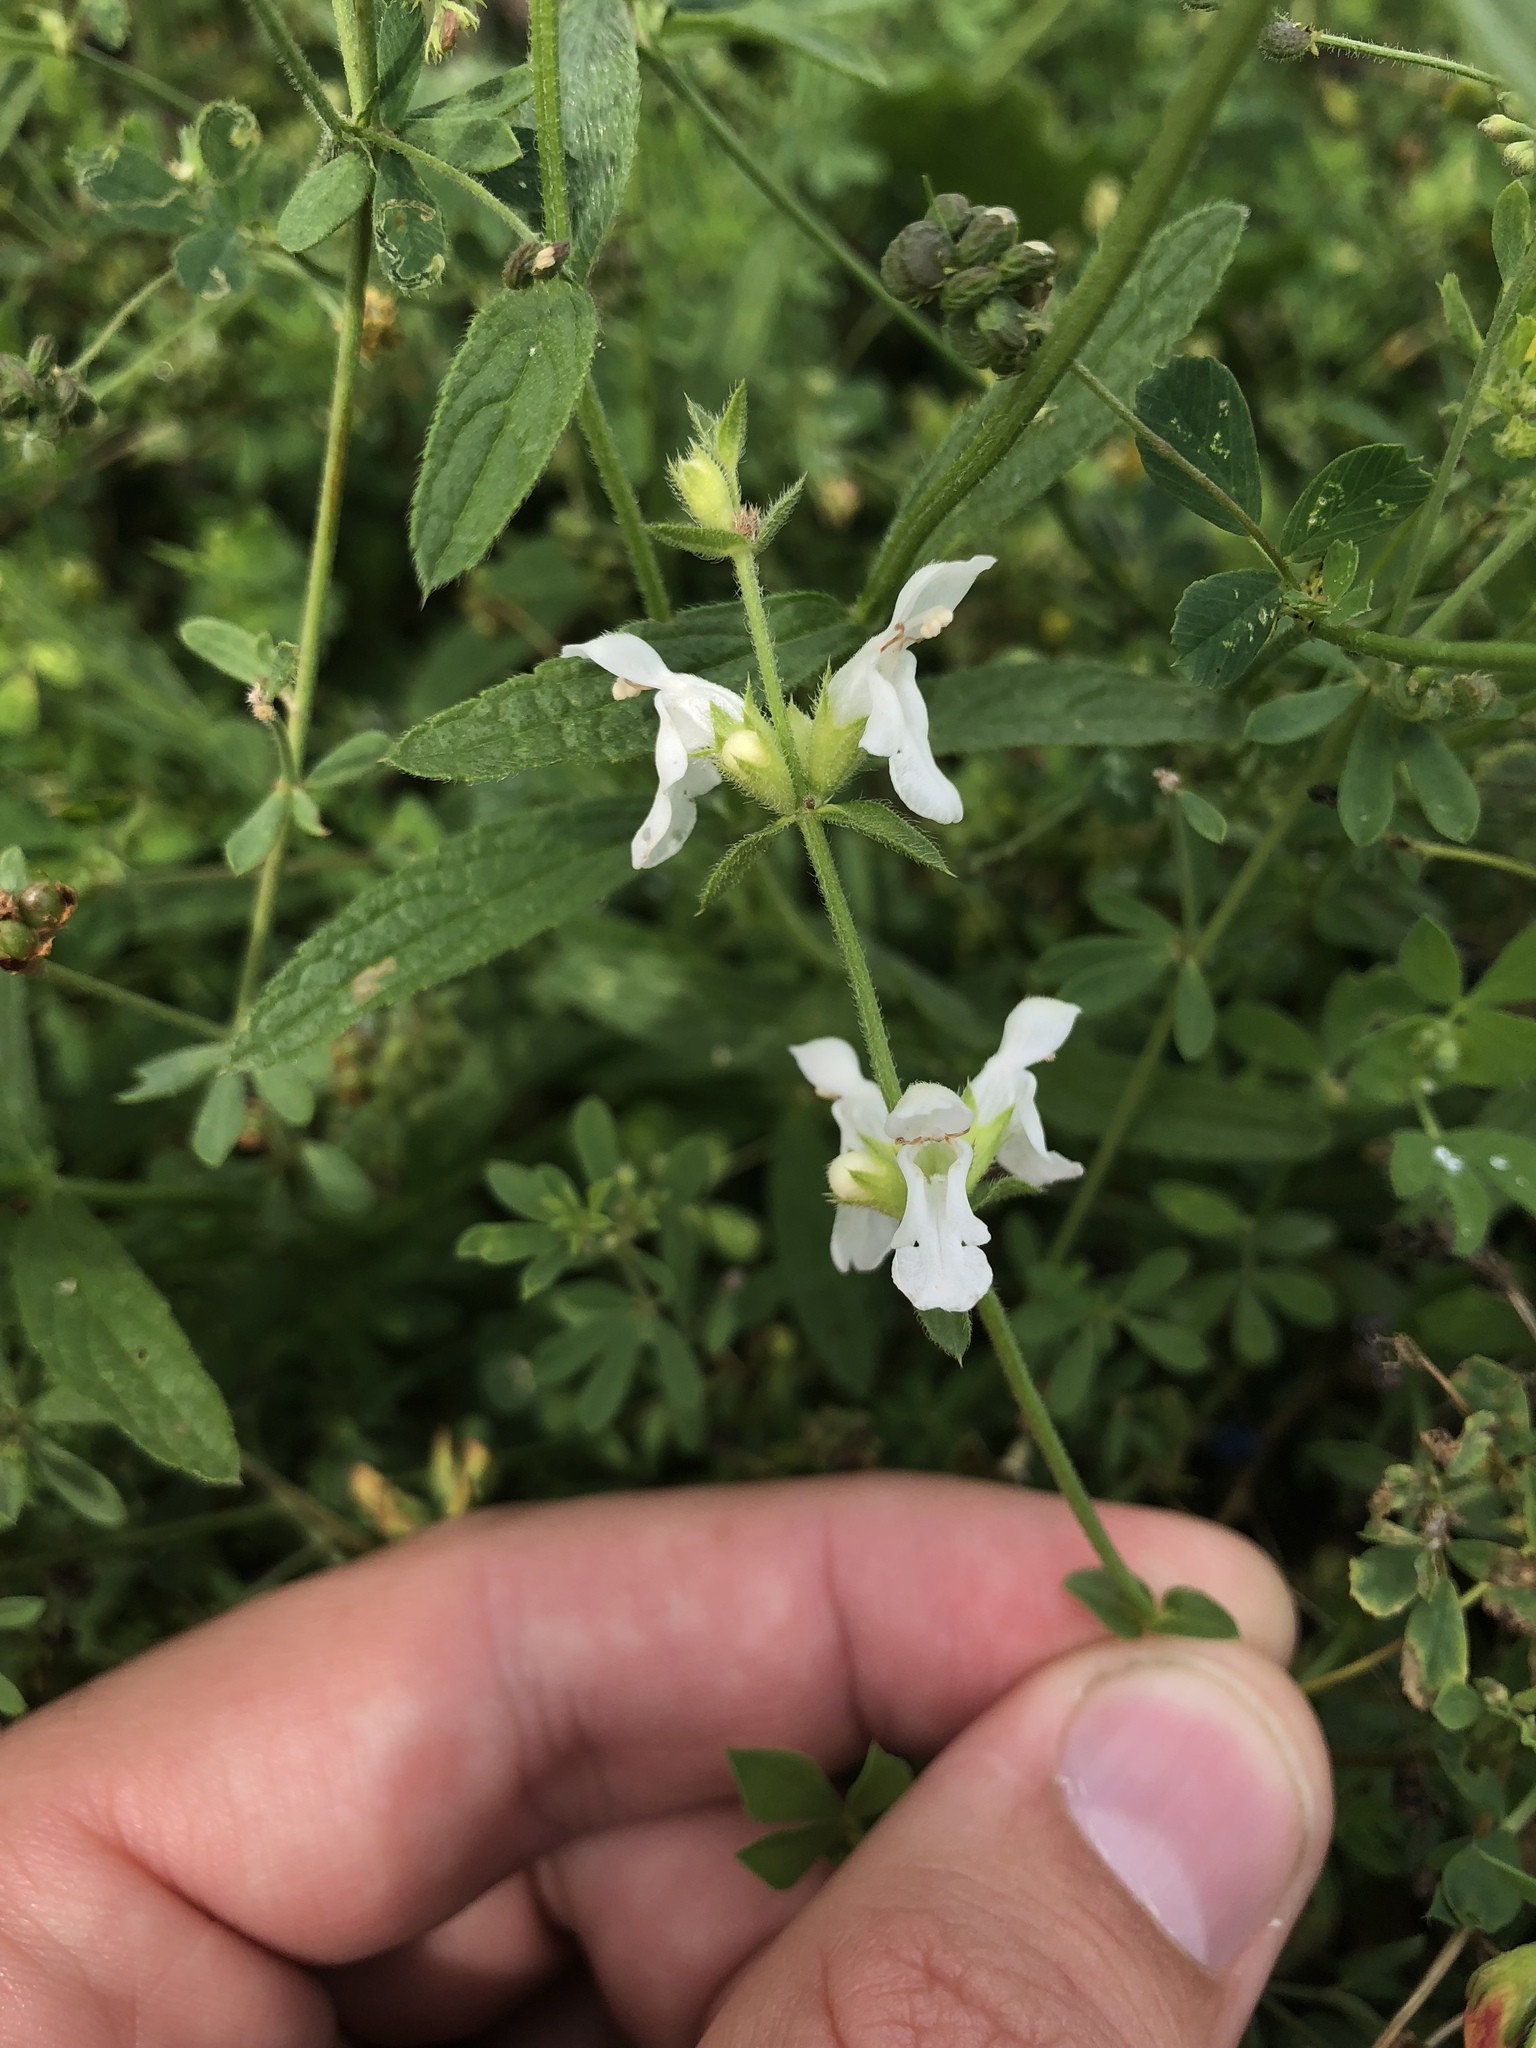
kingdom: Plantae
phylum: Tracheophyta
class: Magnoliopsida
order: Lamiales
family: Lamiaceae
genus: Stachys
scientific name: Stachys recta
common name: Perennial yellow-woundwort
